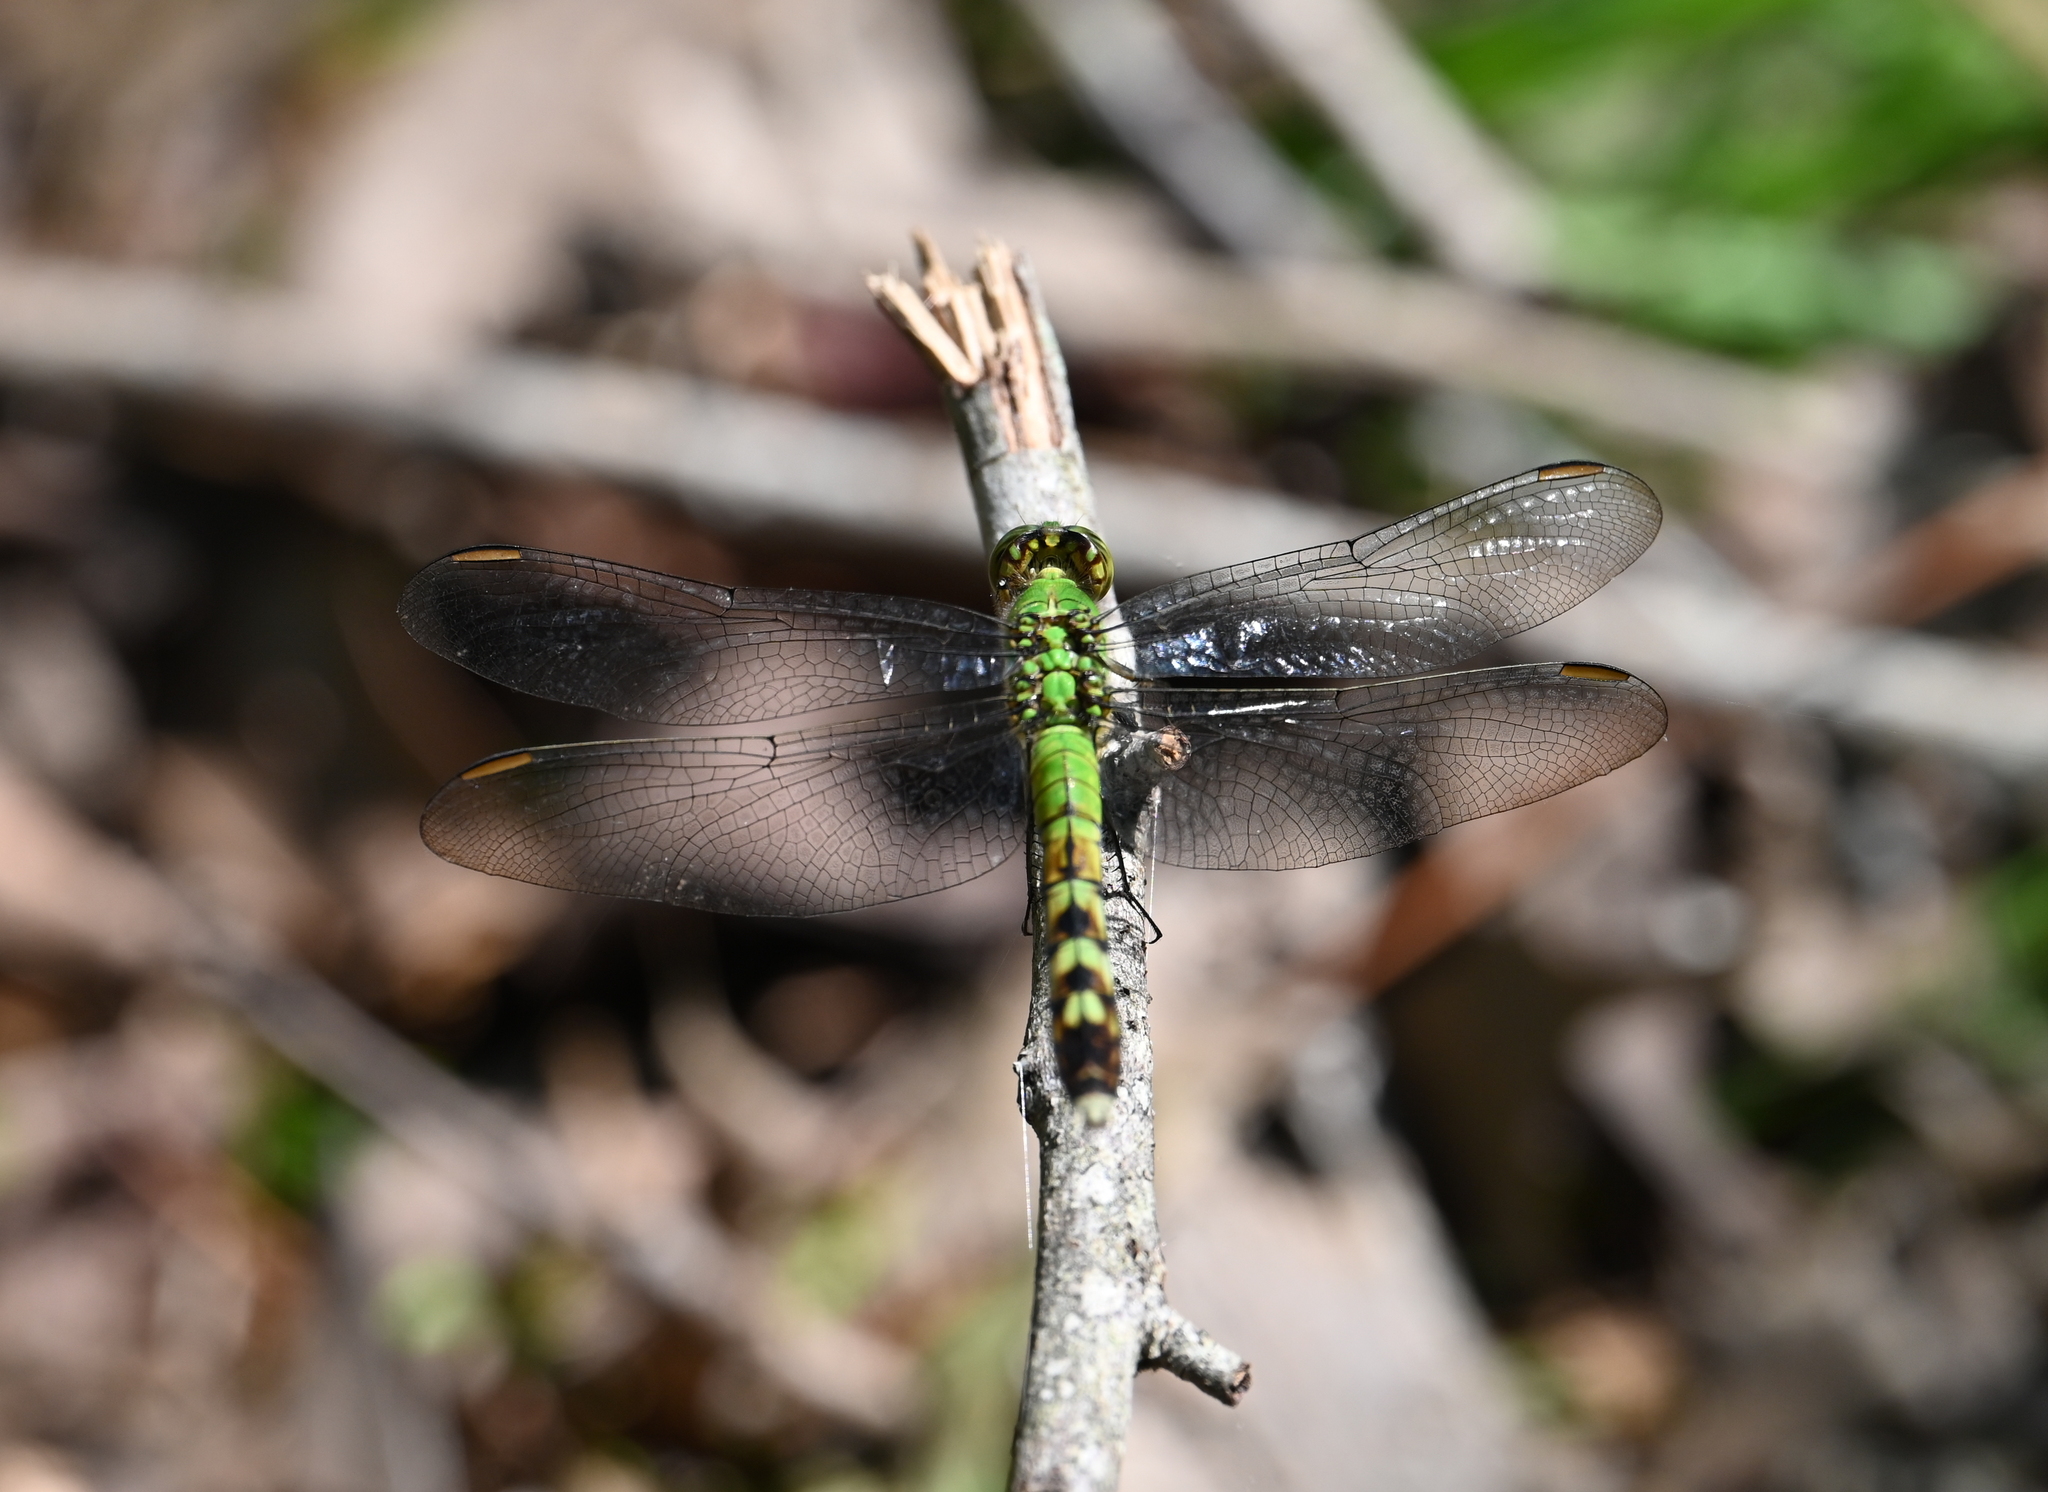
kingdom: Animalia
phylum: Arthropoda
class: Insecta
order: Odonata
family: Libellulidae
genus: Erythemis
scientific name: Erythemis simplicicollis
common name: Eastern pondhawk
